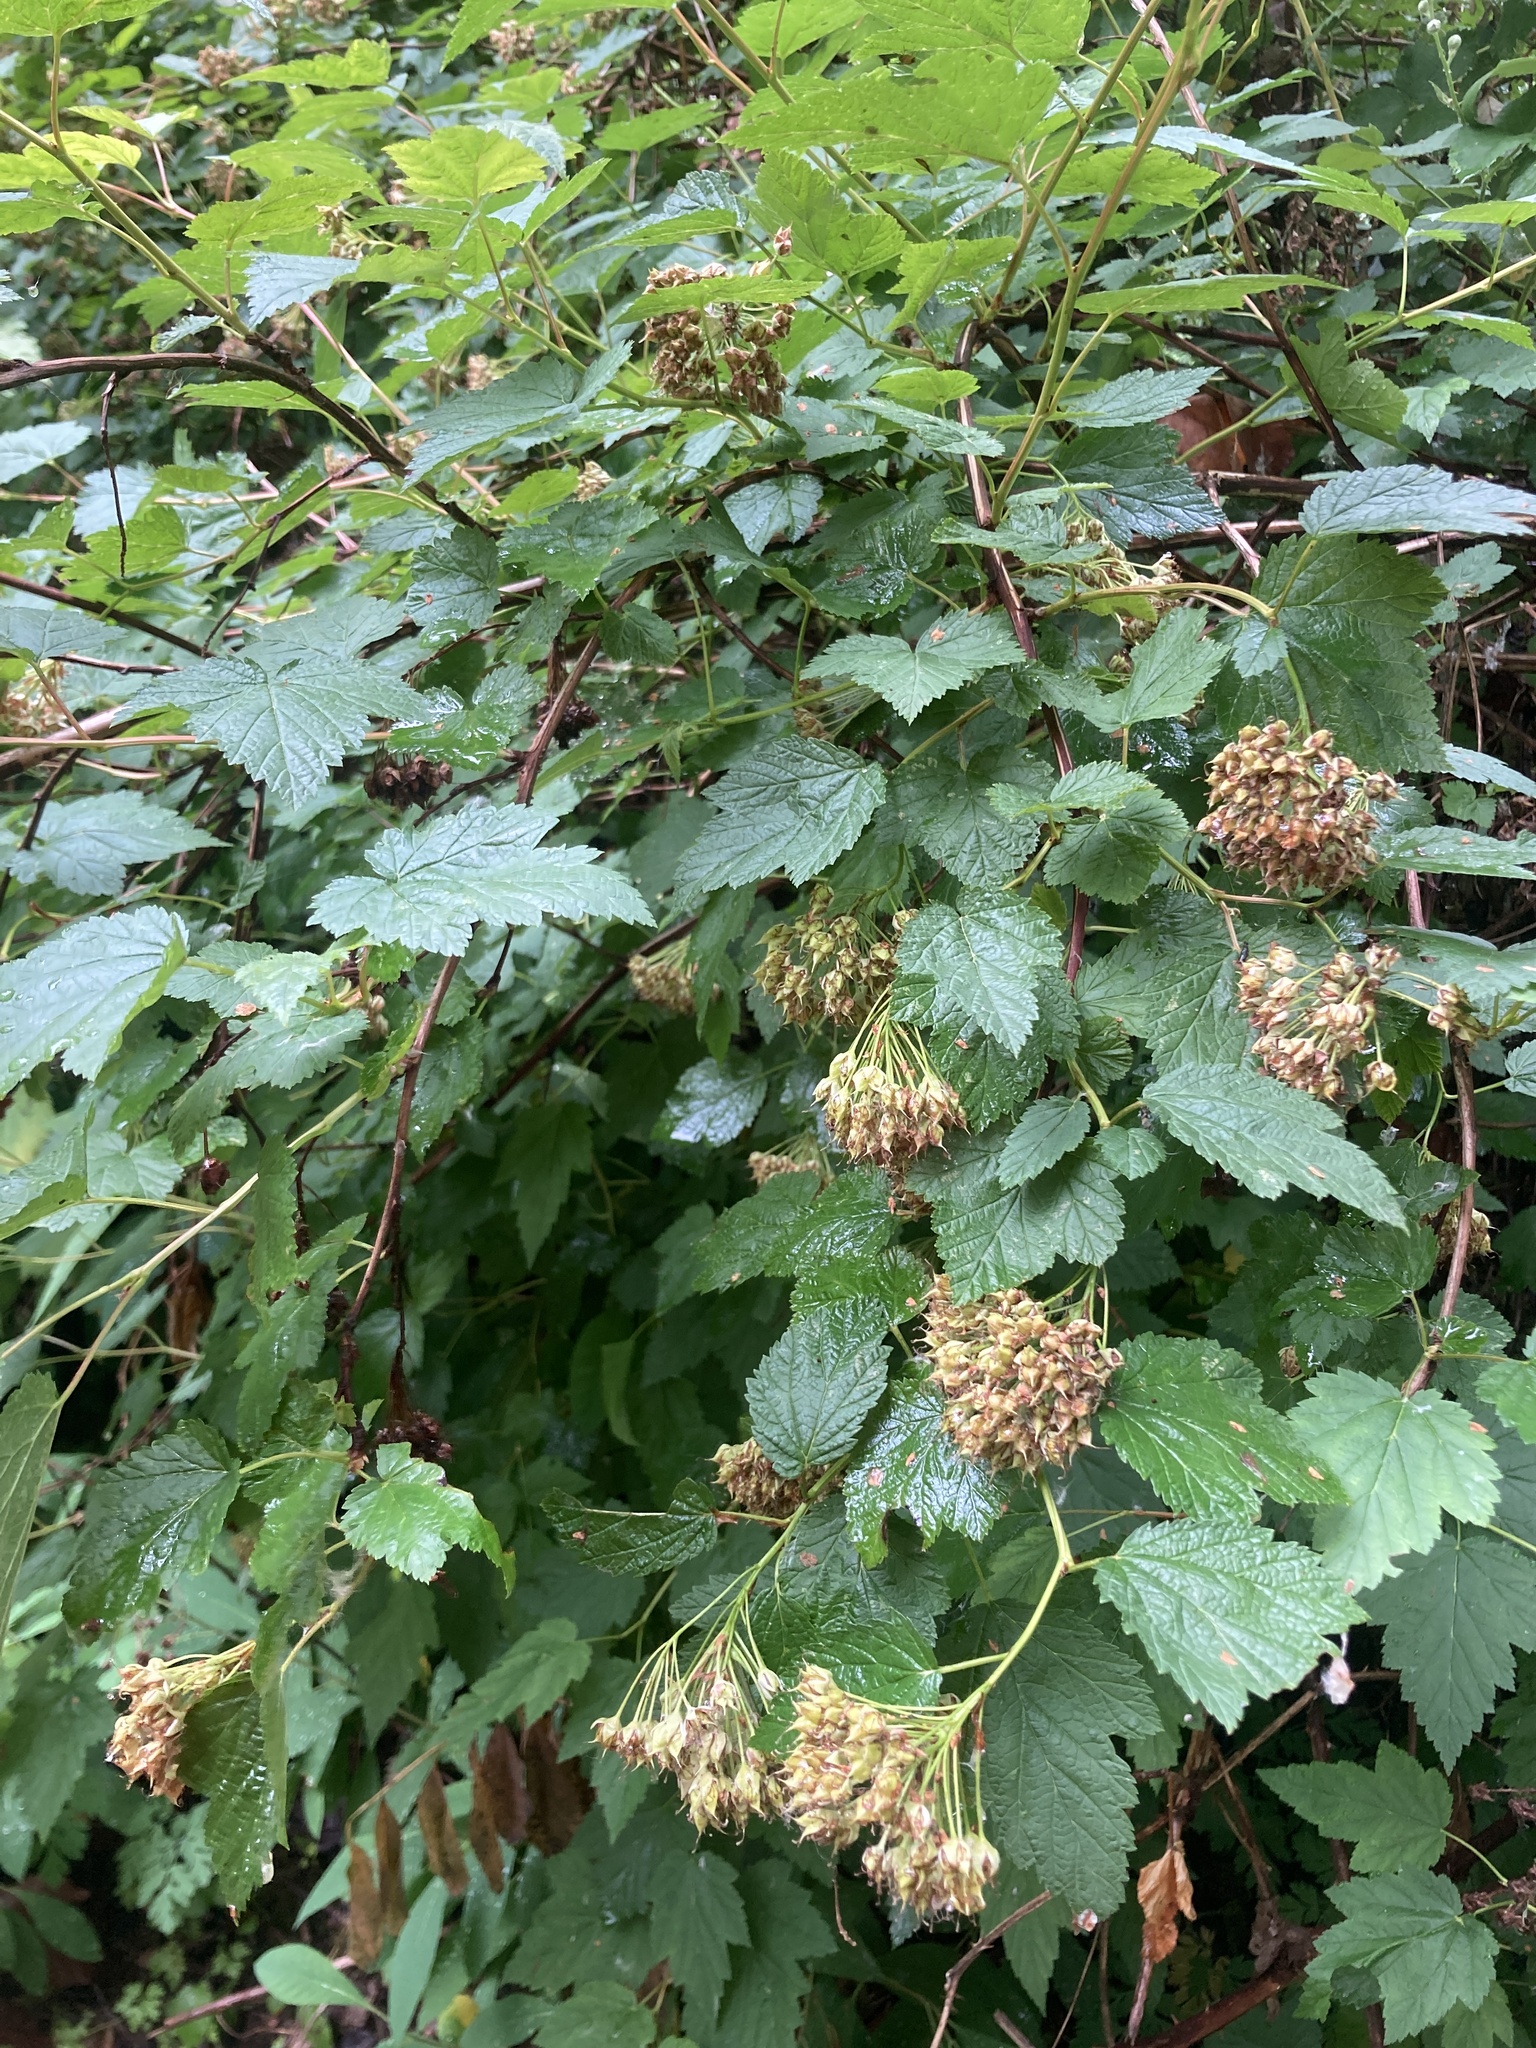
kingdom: Plantae
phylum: Tracheophyta
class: Magnoliopsida
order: Rosales
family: Rosaceae
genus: Physocarpus
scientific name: Physocarpus capitatus
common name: Pacific ninebark
